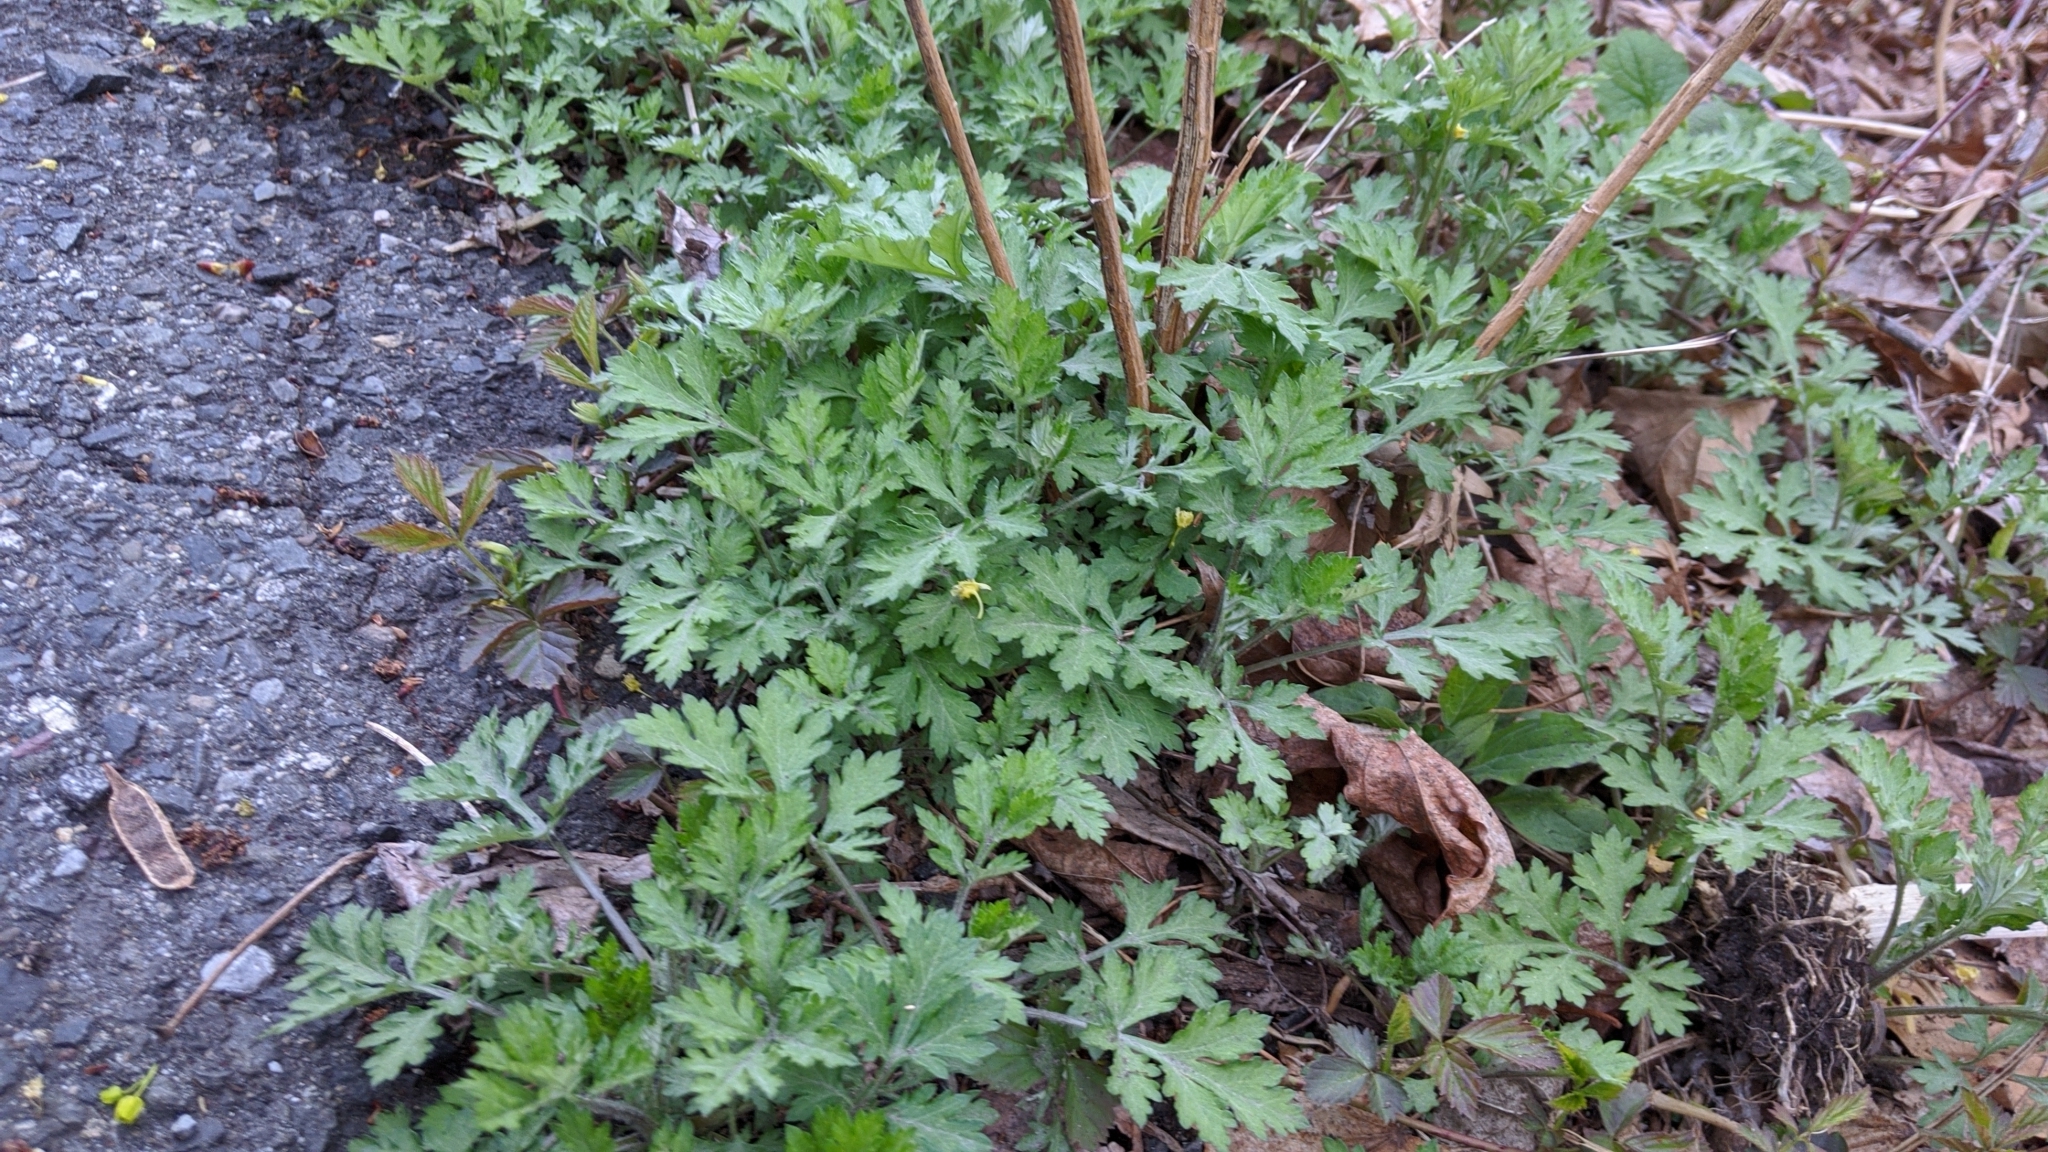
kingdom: Plantae
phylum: Tracheophyta
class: Magnoliopsida
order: Asterales
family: Asteraceae
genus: Artemisia
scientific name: Artemisia vulgaris
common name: Mugwort
